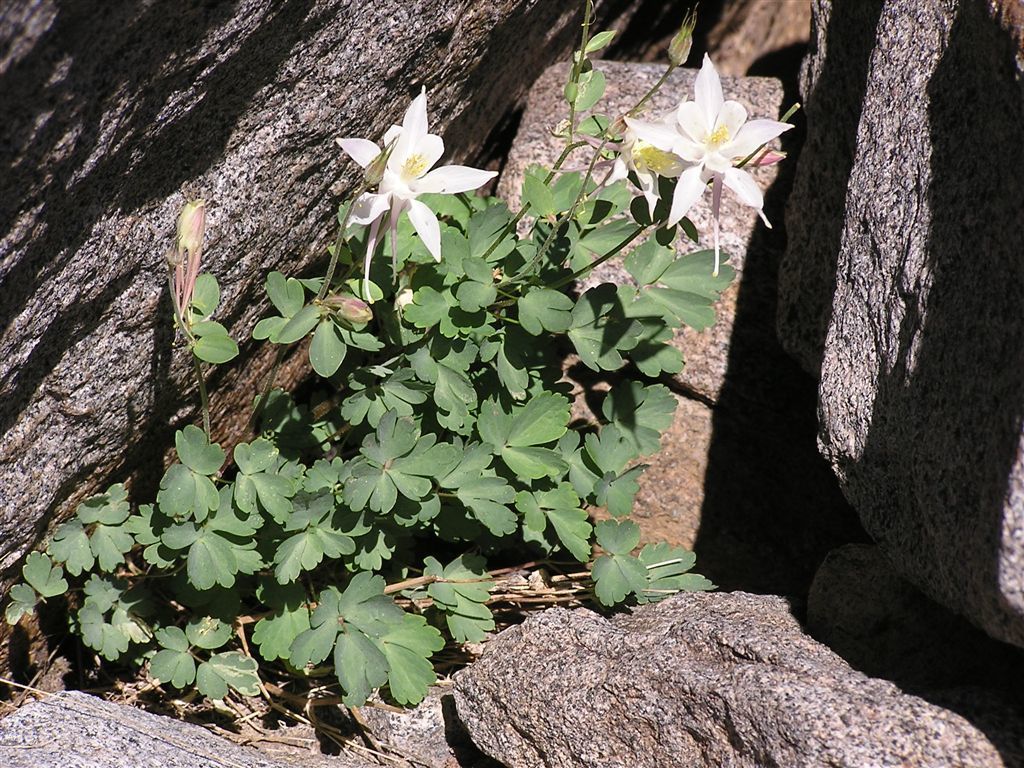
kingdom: Plantae
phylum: Tracheophyta
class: Magnoliopsida
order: Ranunculales
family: Ranunculaceae
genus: Aquilegia
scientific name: Aquilegia pubescens
